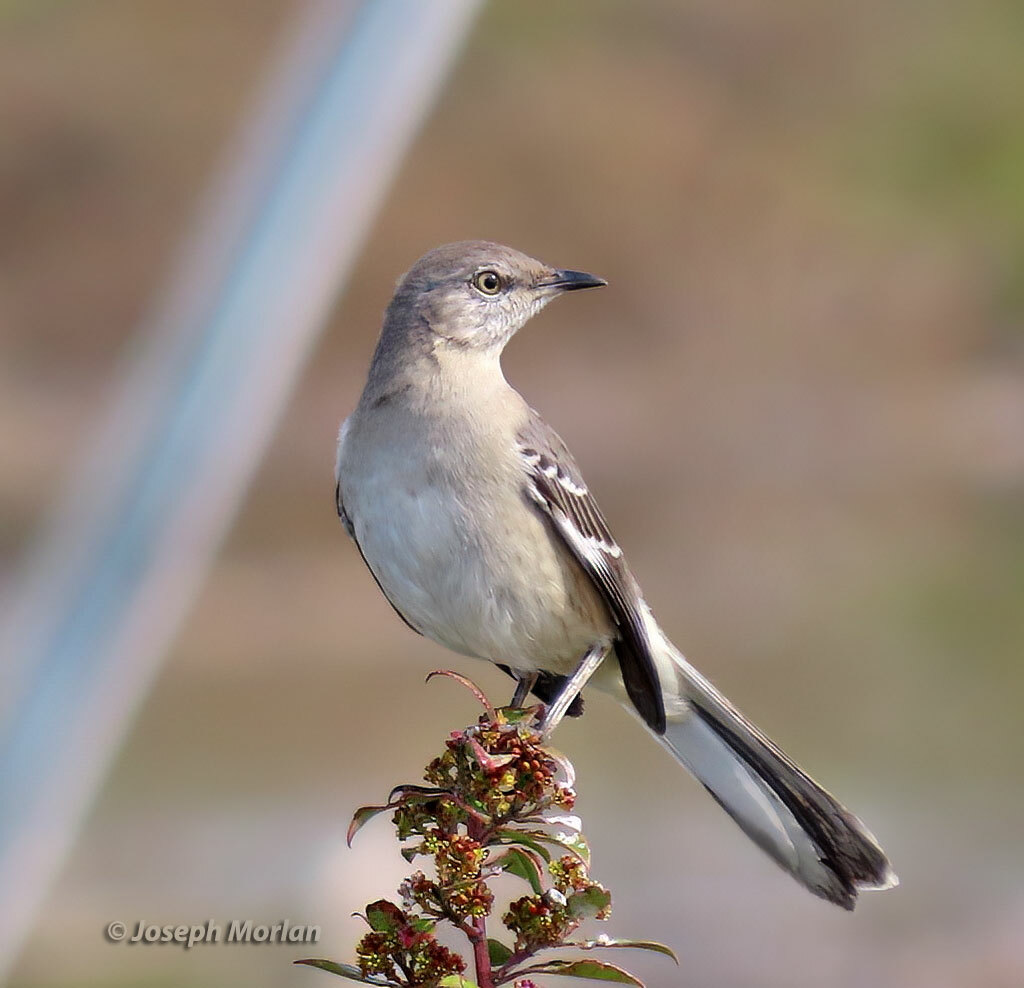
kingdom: Animalia
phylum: Chordata
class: Aves
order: Passeriformes
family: Mimidae
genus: Mimus
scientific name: Mimus polyglottos
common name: Northern mockingbird
